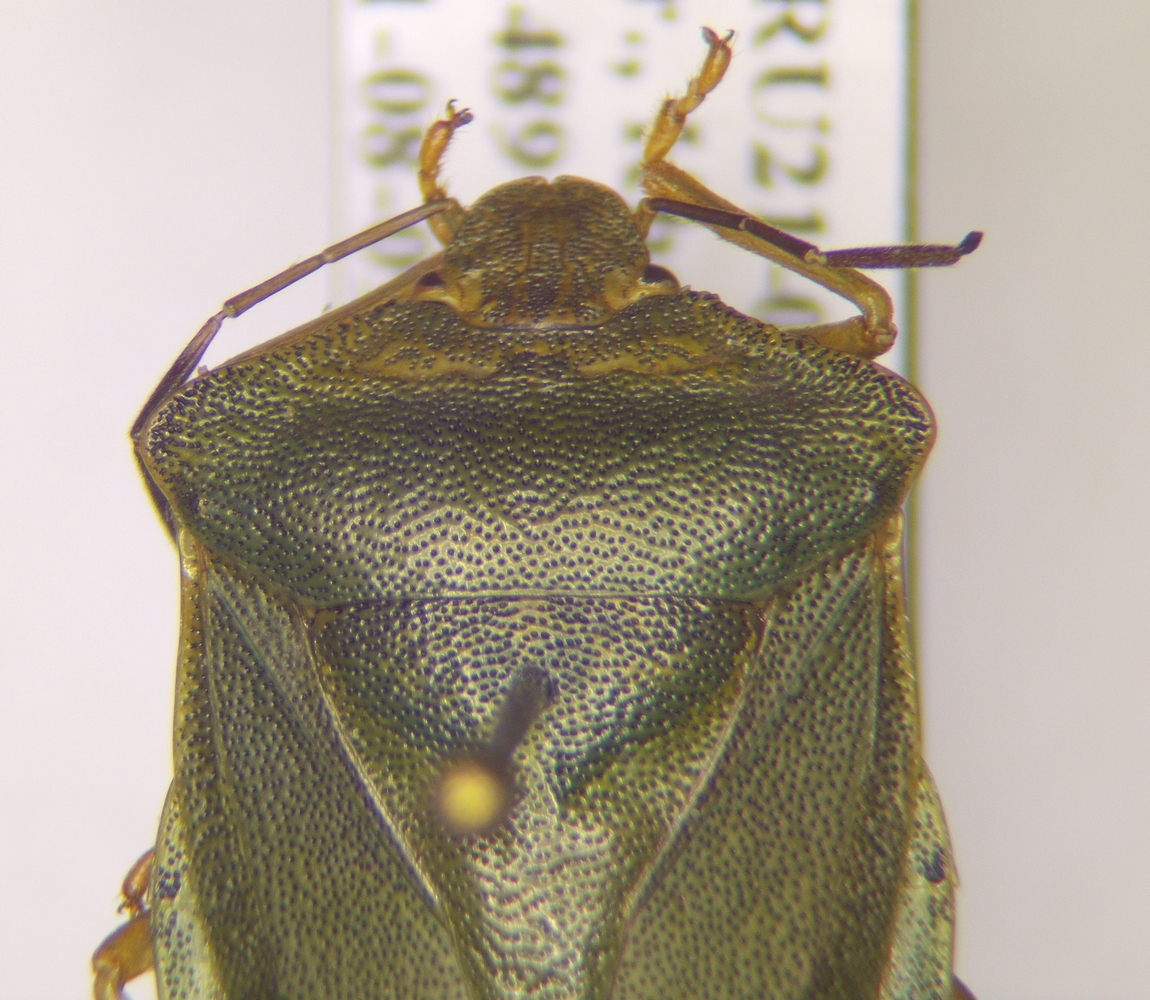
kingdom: Animalia
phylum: Arthropoda
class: Insecta
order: Hemiptera
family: Pentatomidae
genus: Palomena
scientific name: Palomena
